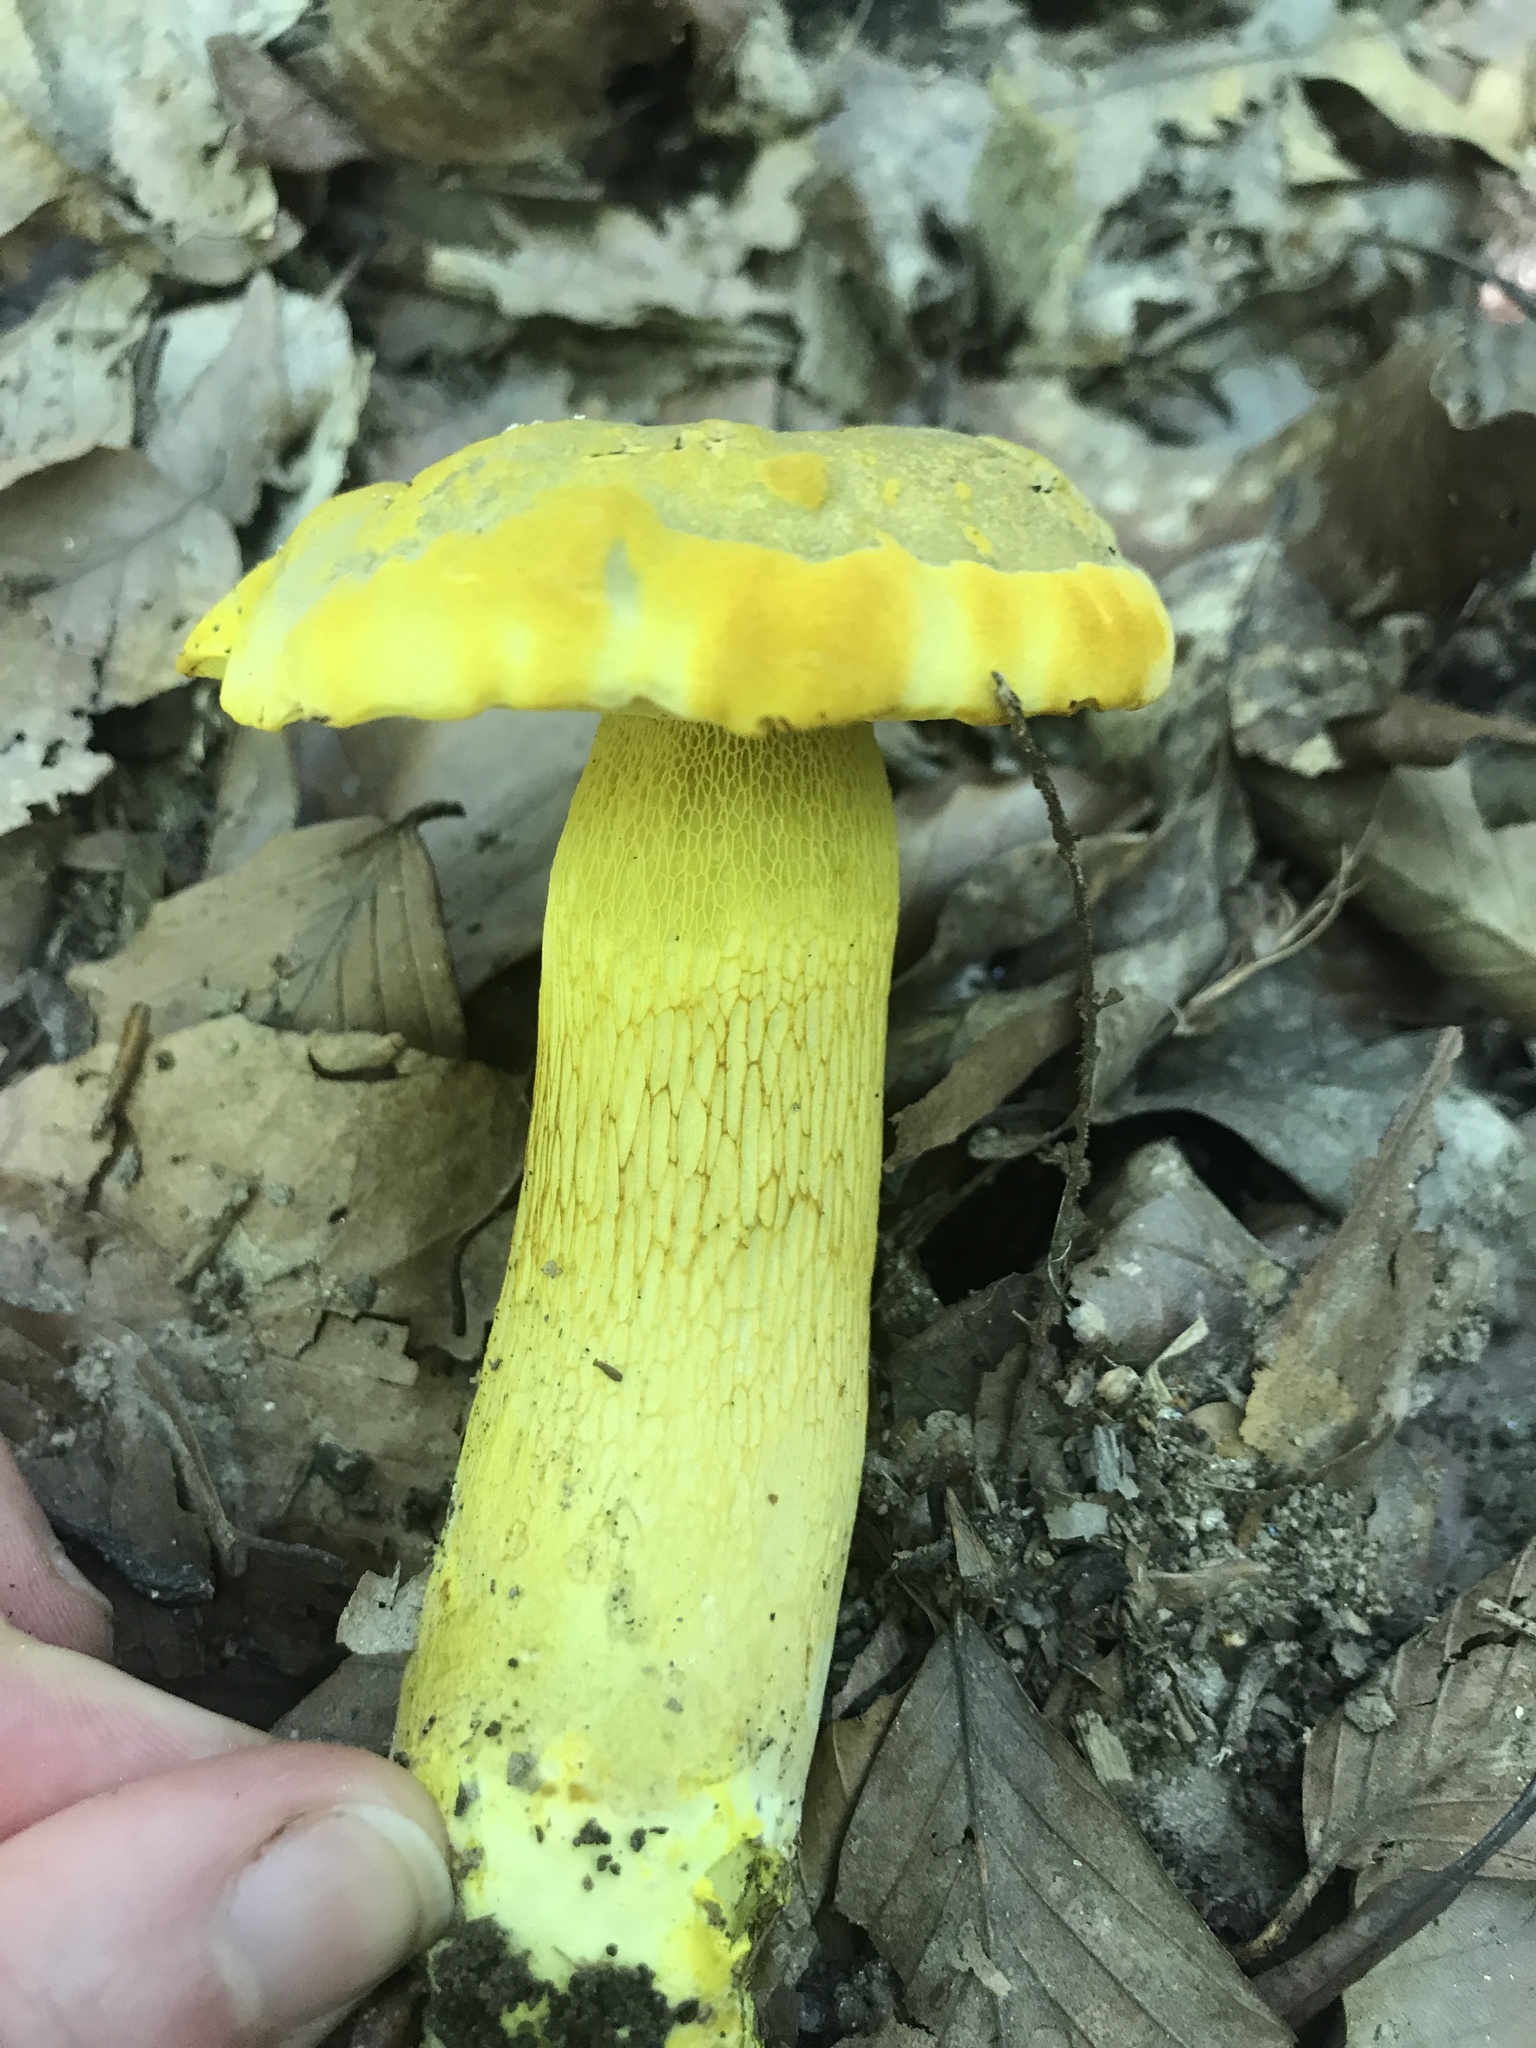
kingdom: Fungi
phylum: Basidiomycota
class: Agaricomycetes
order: Boletales
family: Boletaceae
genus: Retiboletus
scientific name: Retiboletus ornatipes
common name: Ornate-stalked bolete
